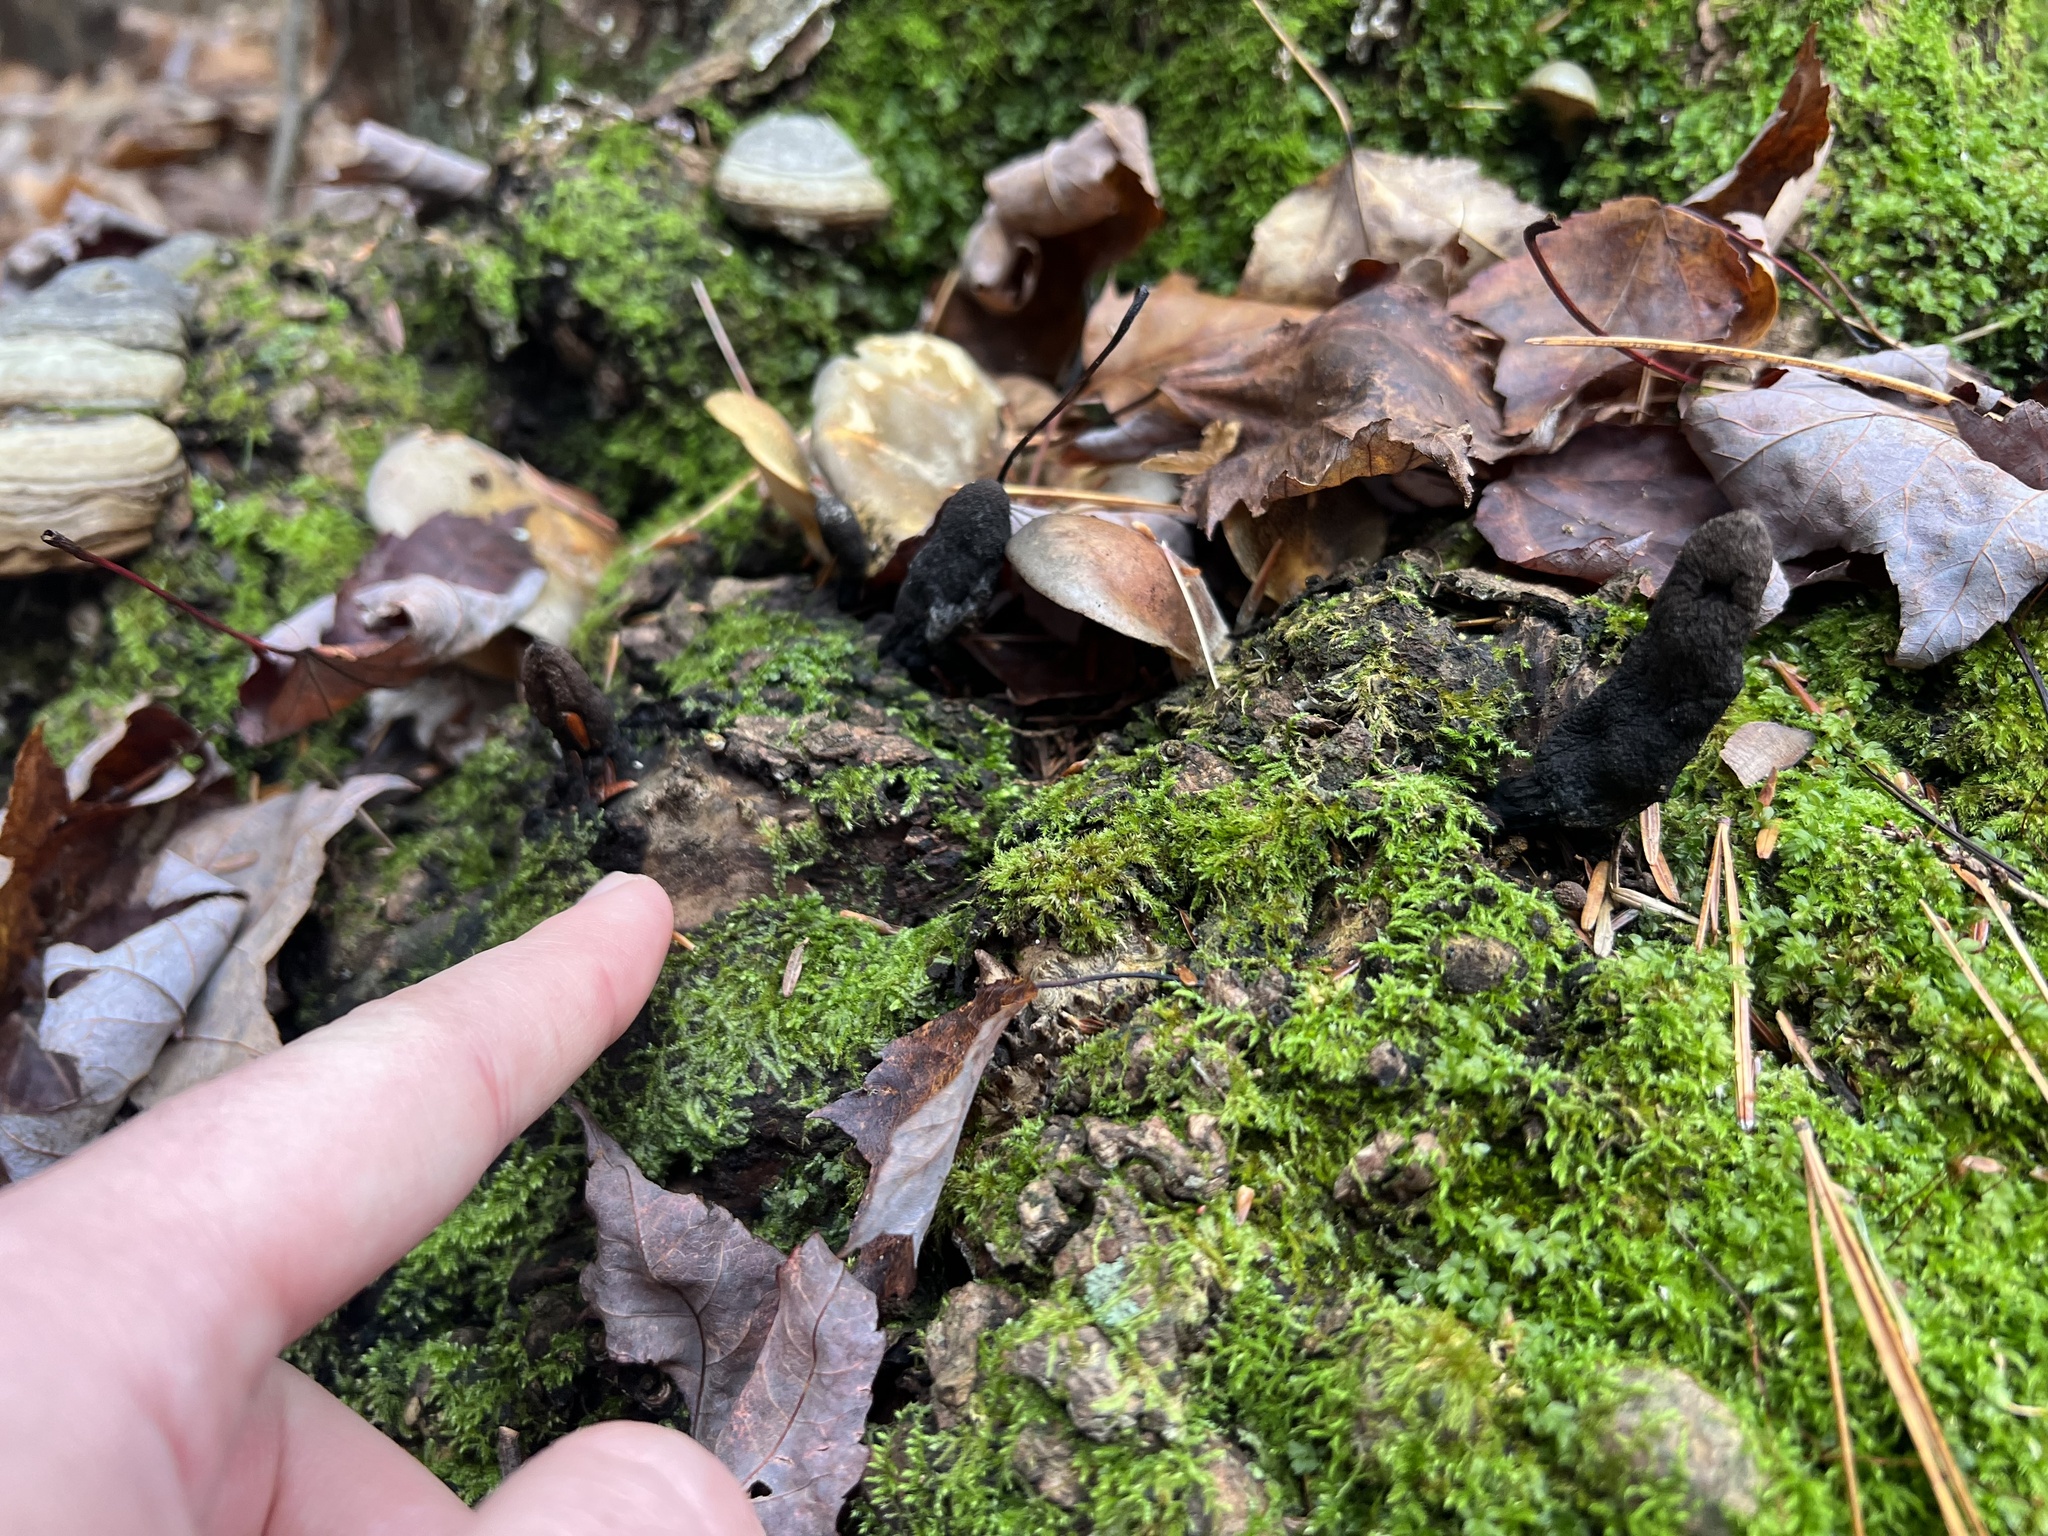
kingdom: Fungi
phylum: Ascomycota
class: Sordariomycetes
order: Xylariales
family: Xylariaceae
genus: Xylaria
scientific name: Xylaria polymorpha
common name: Dead man's fingers
